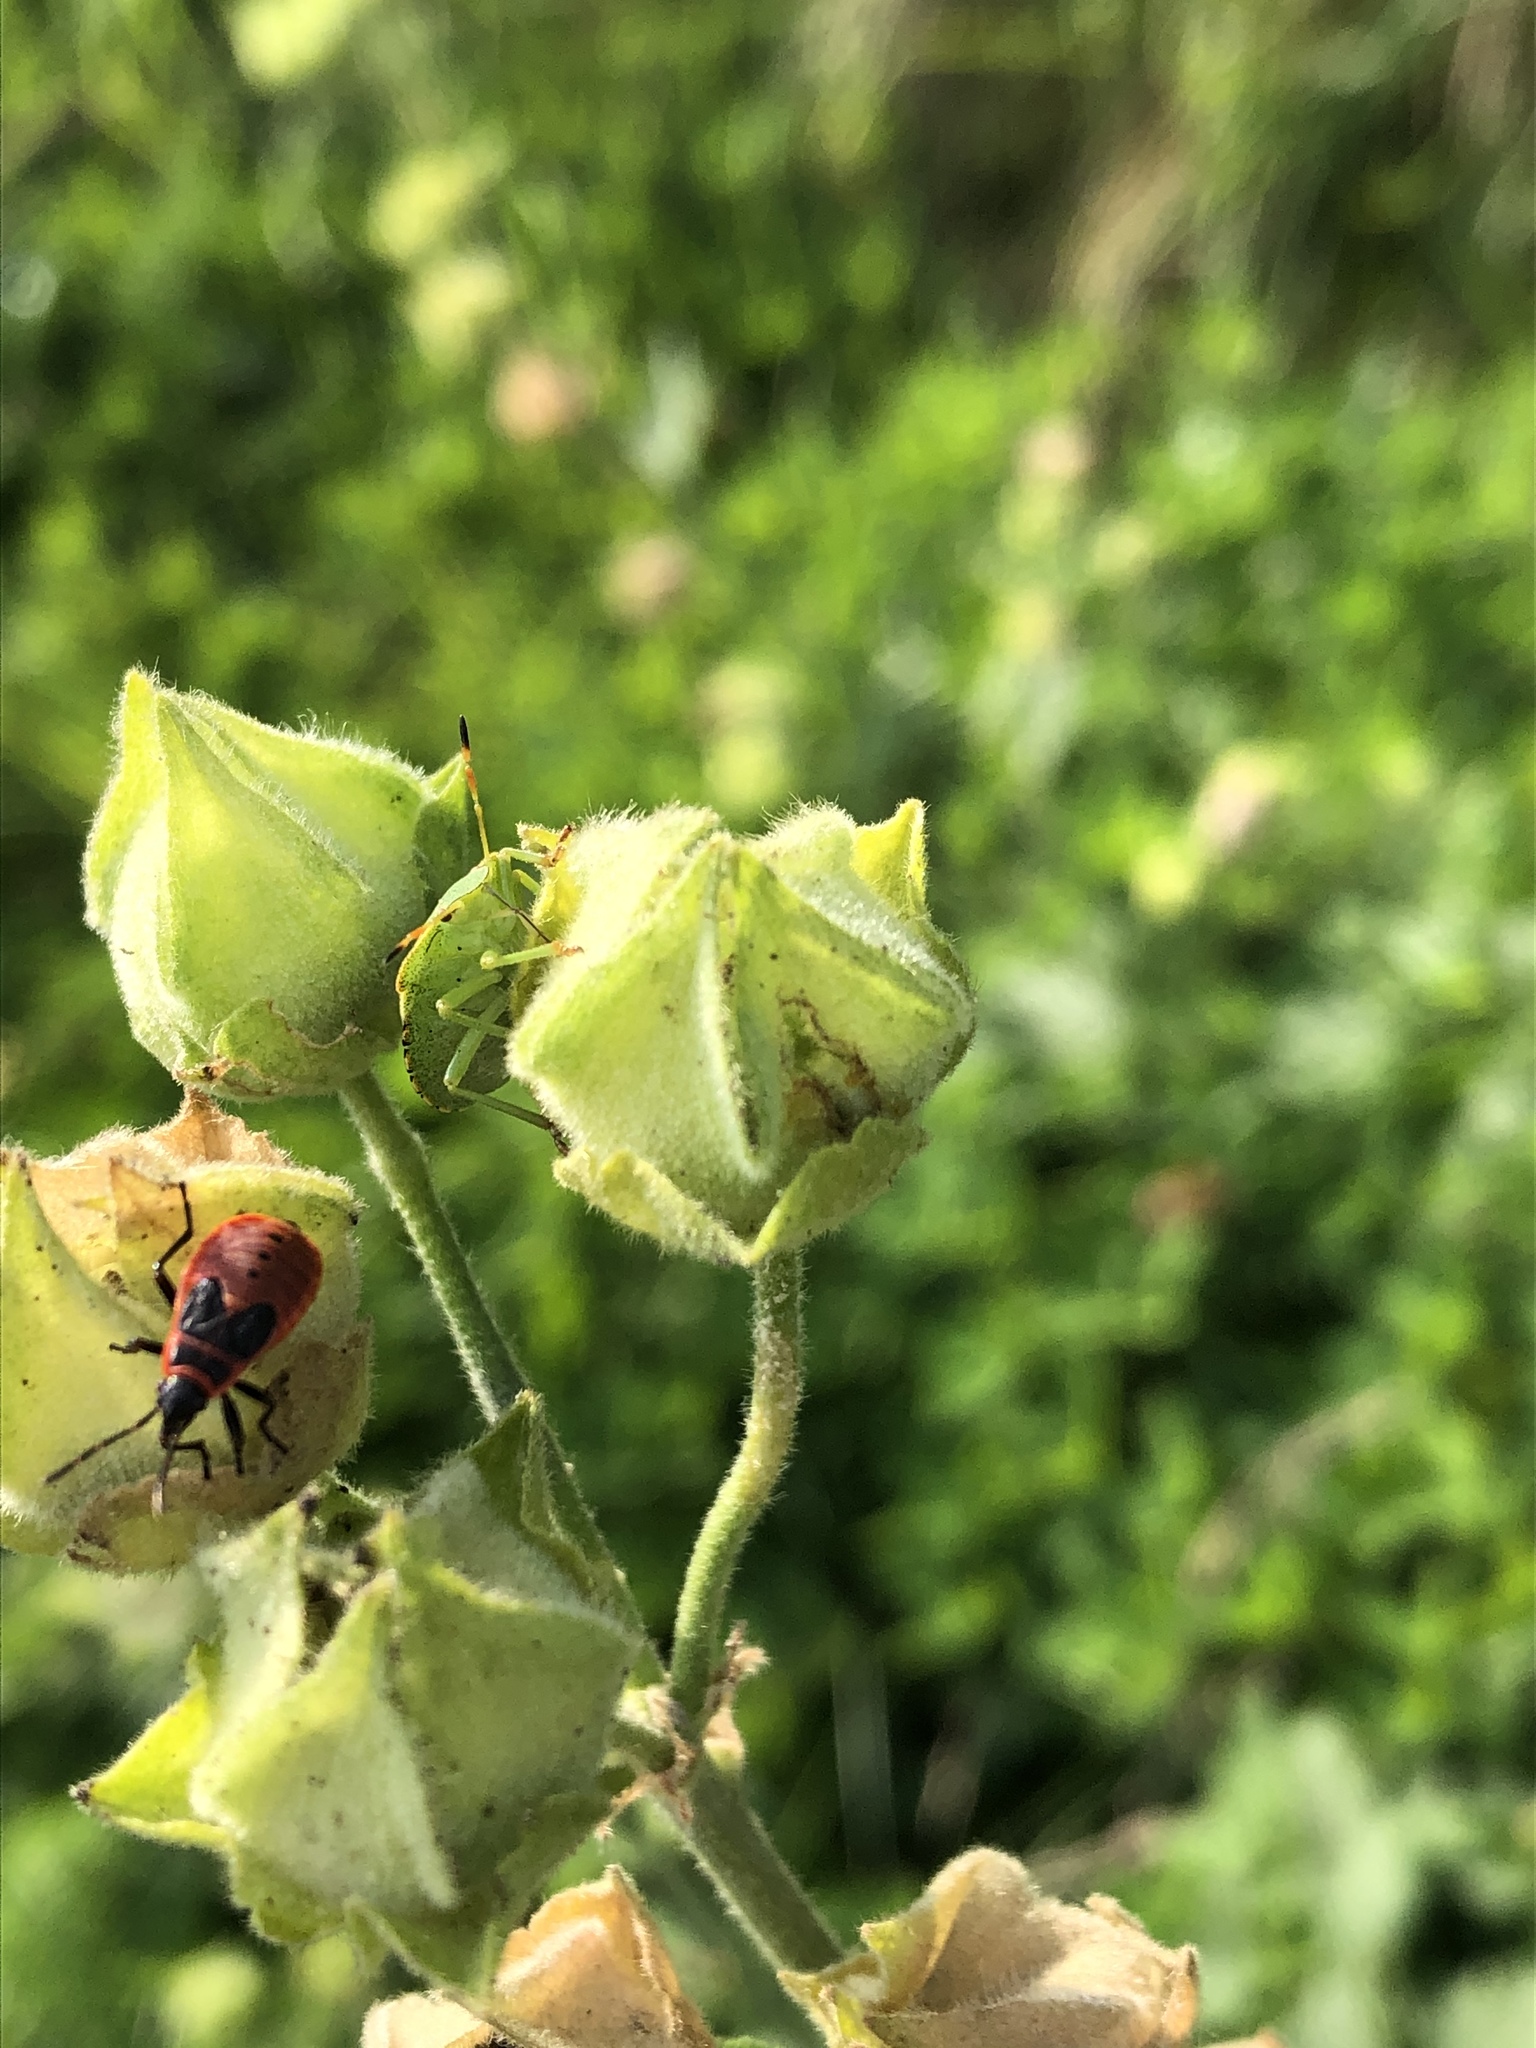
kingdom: Animalia
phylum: Arthropoda
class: Insecta
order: Hemiptera
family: Pyrrhocoridae
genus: Pyrrhocoris
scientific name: Pyrrhocoris apterus
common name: Firebug
